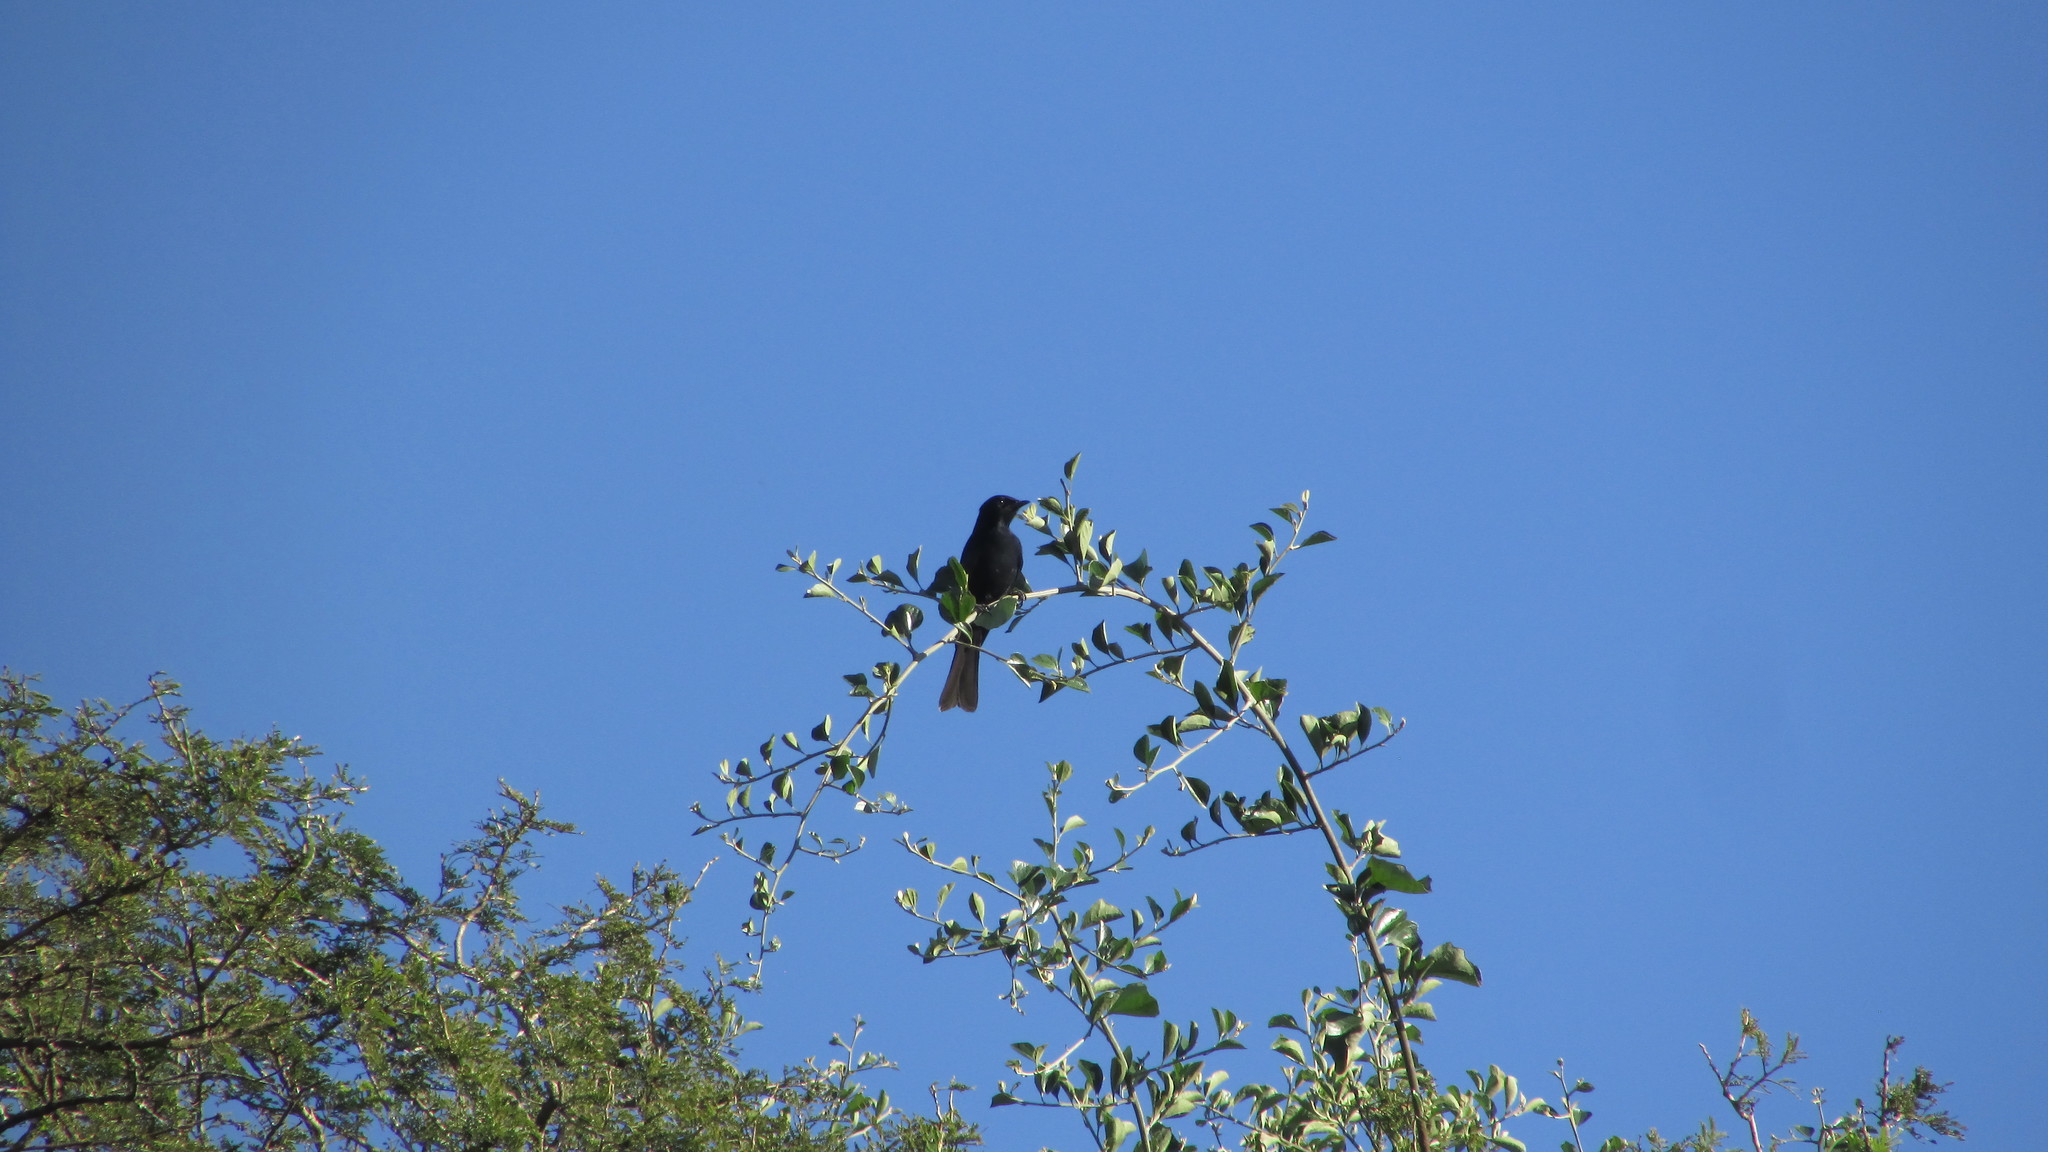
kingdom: Animalia
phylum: Chordata
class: Aves
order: Passeriformes
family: Muscicapidae
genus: Melaenornis
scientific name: Melaenornis pammelaina
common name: Southern black flycatcher
